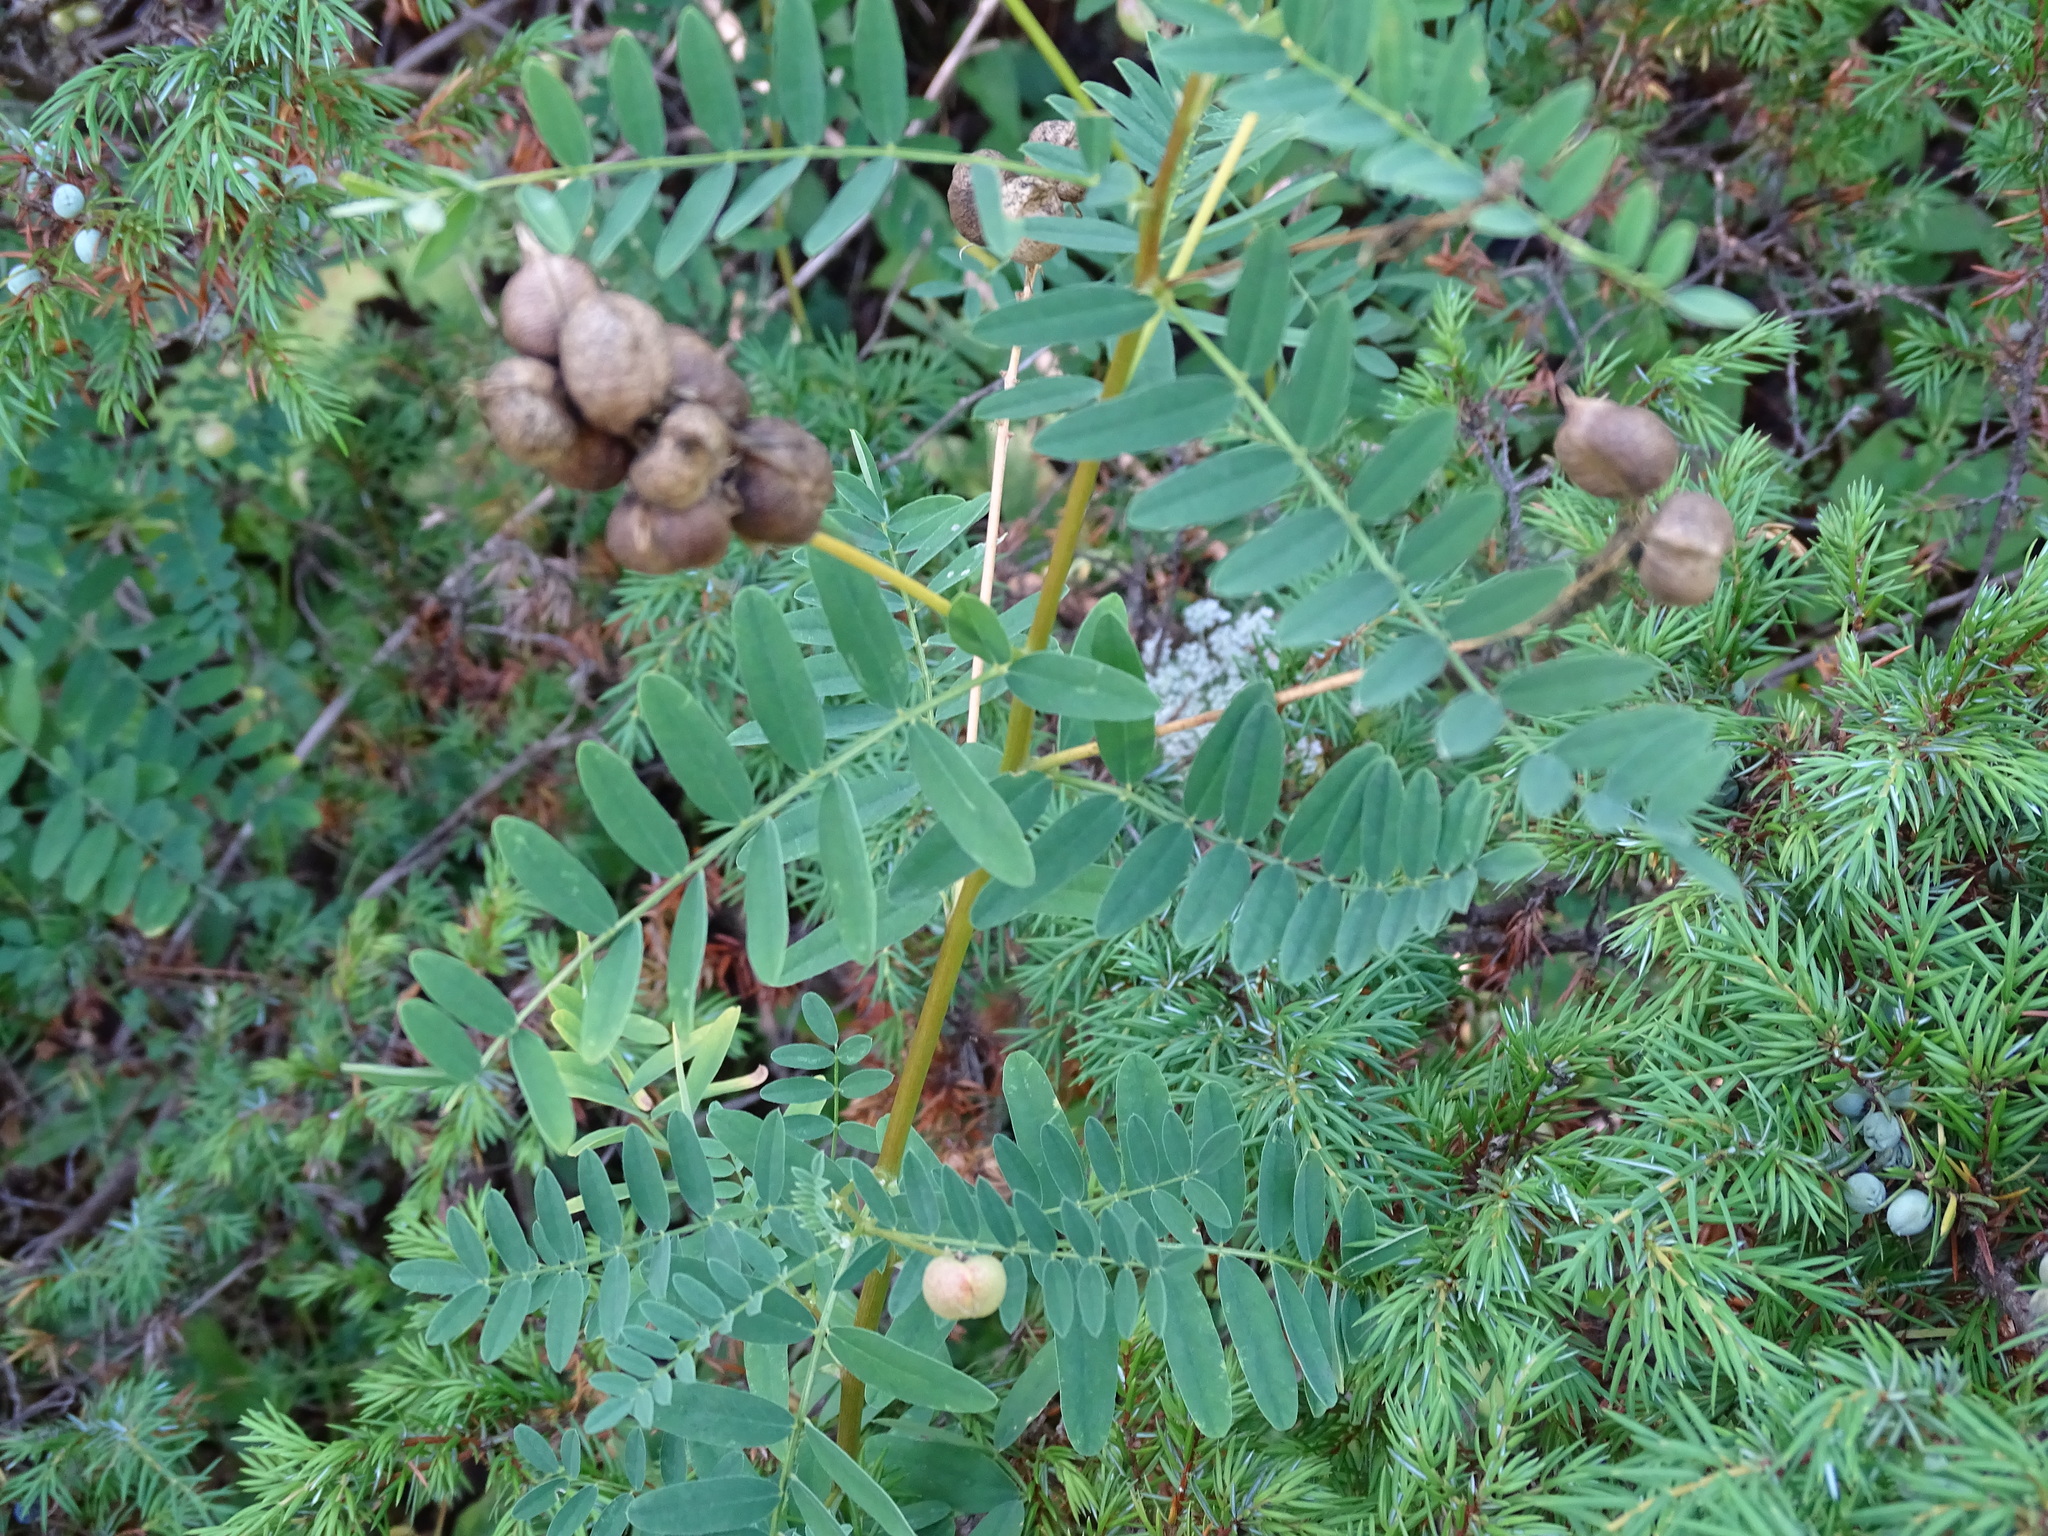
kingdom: Plantae
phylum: Tracheophyta
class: Magnoliopsida
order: Fabales
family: Fabaceae
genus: Astragalus
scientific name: Astragalus neglectus
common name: Cooper's milk-vetch
